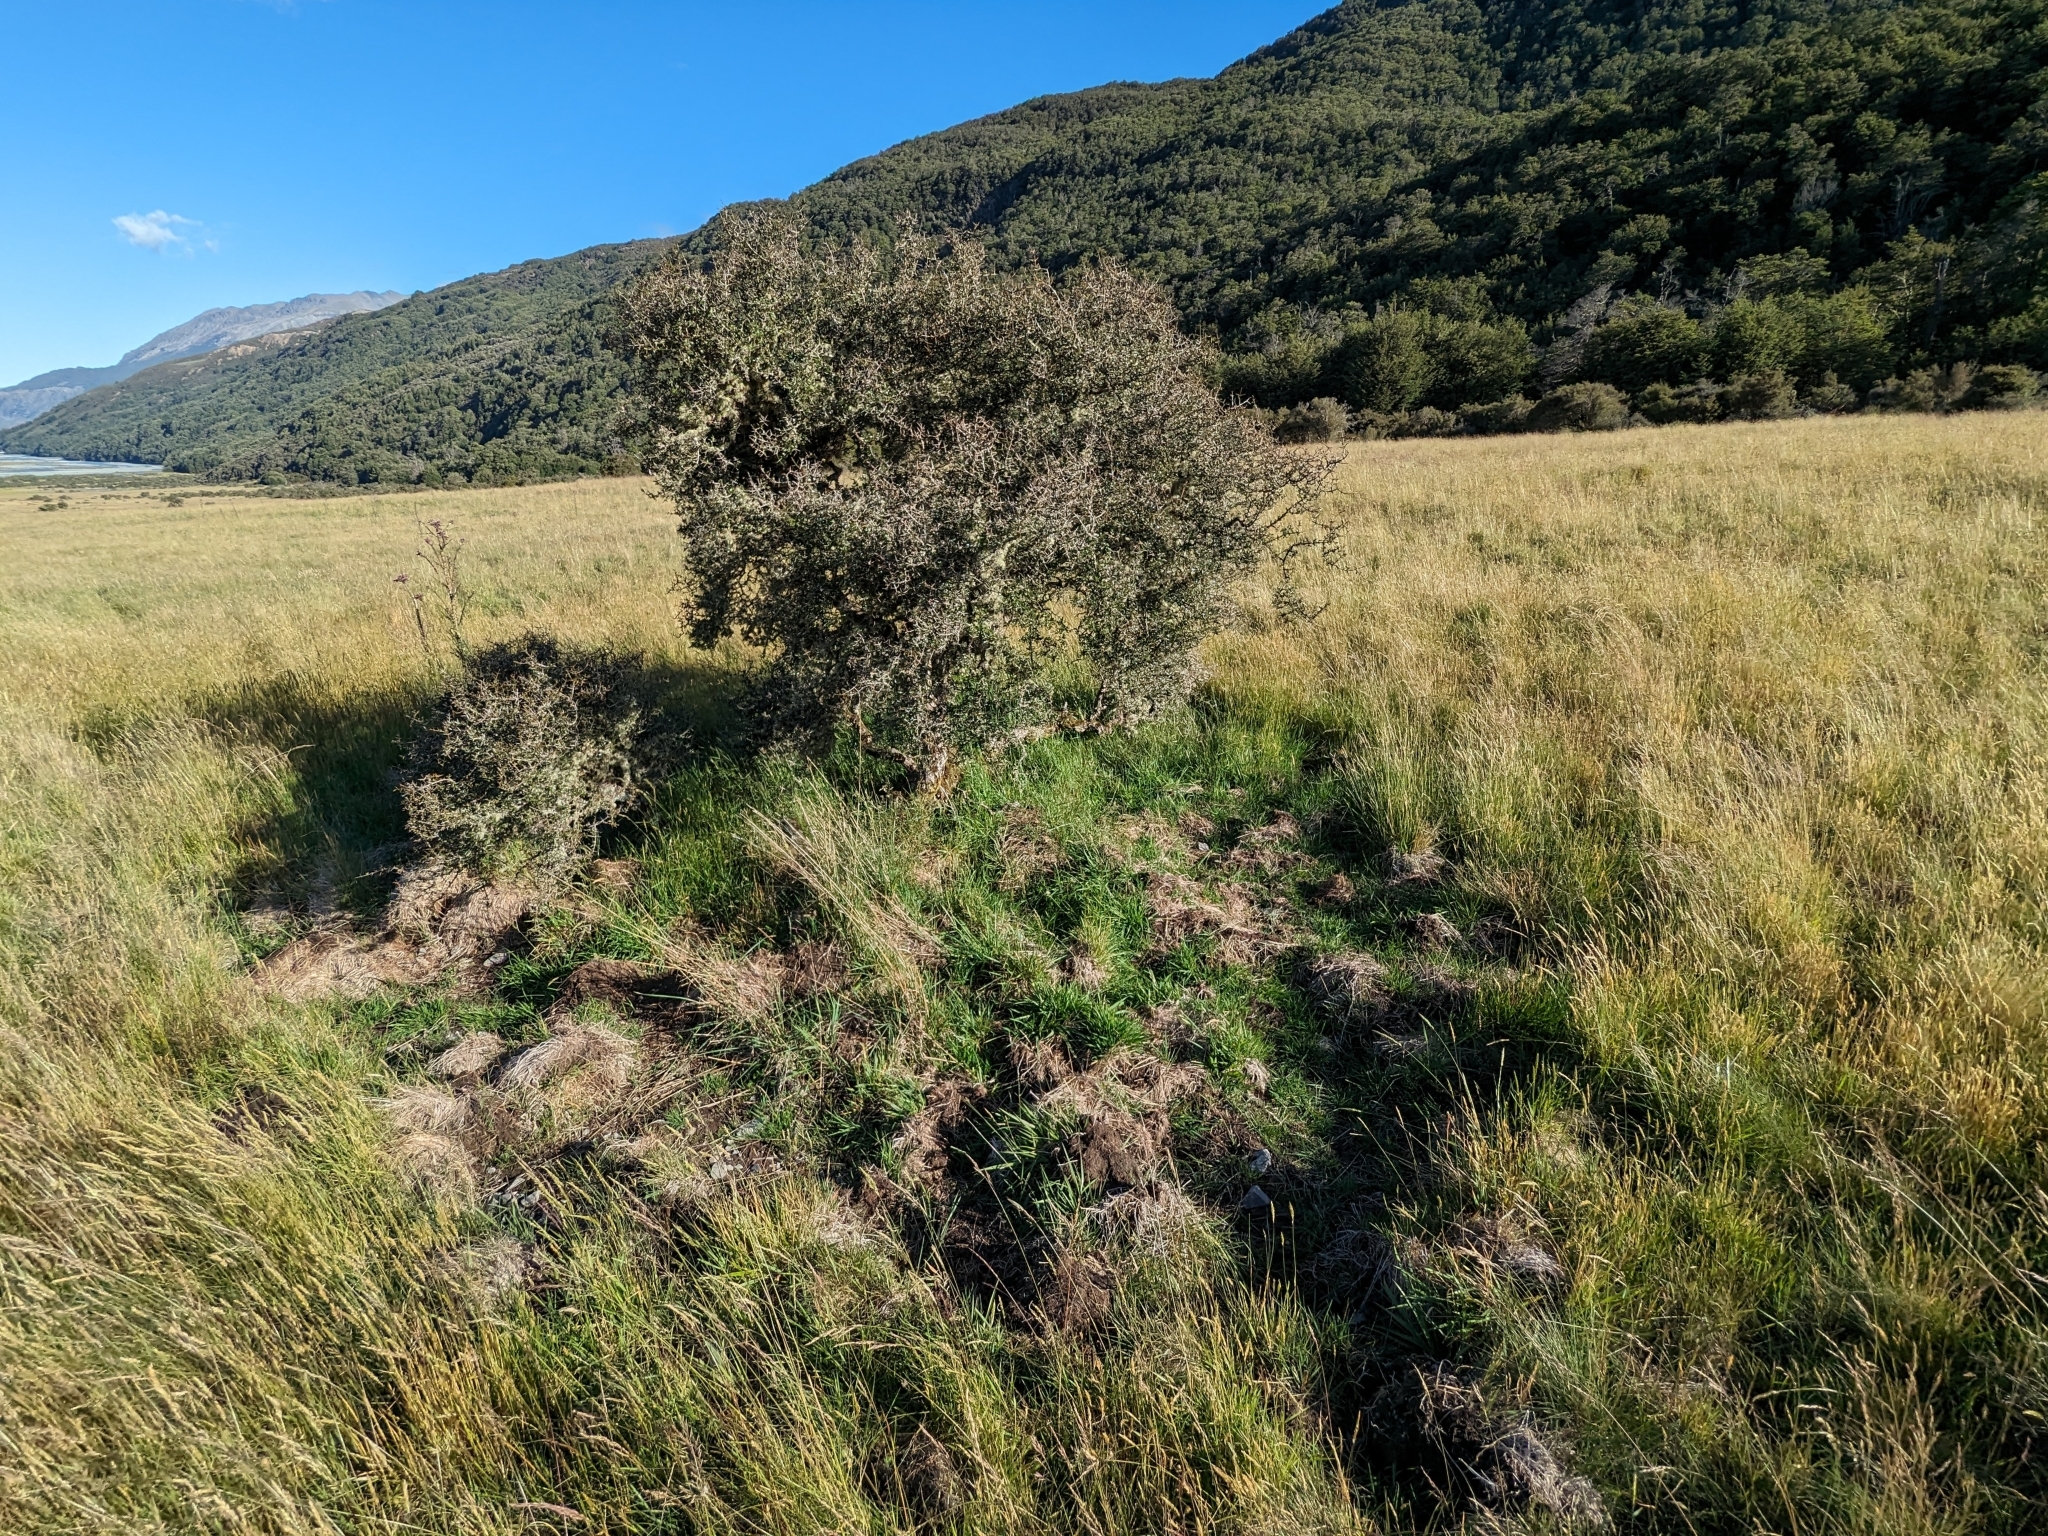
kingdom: Animalia
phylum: Chordata
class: Mammalia
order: Artiodactyla
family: Suidae
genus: Sus
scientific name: Sus scrofa
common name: Wild boar
